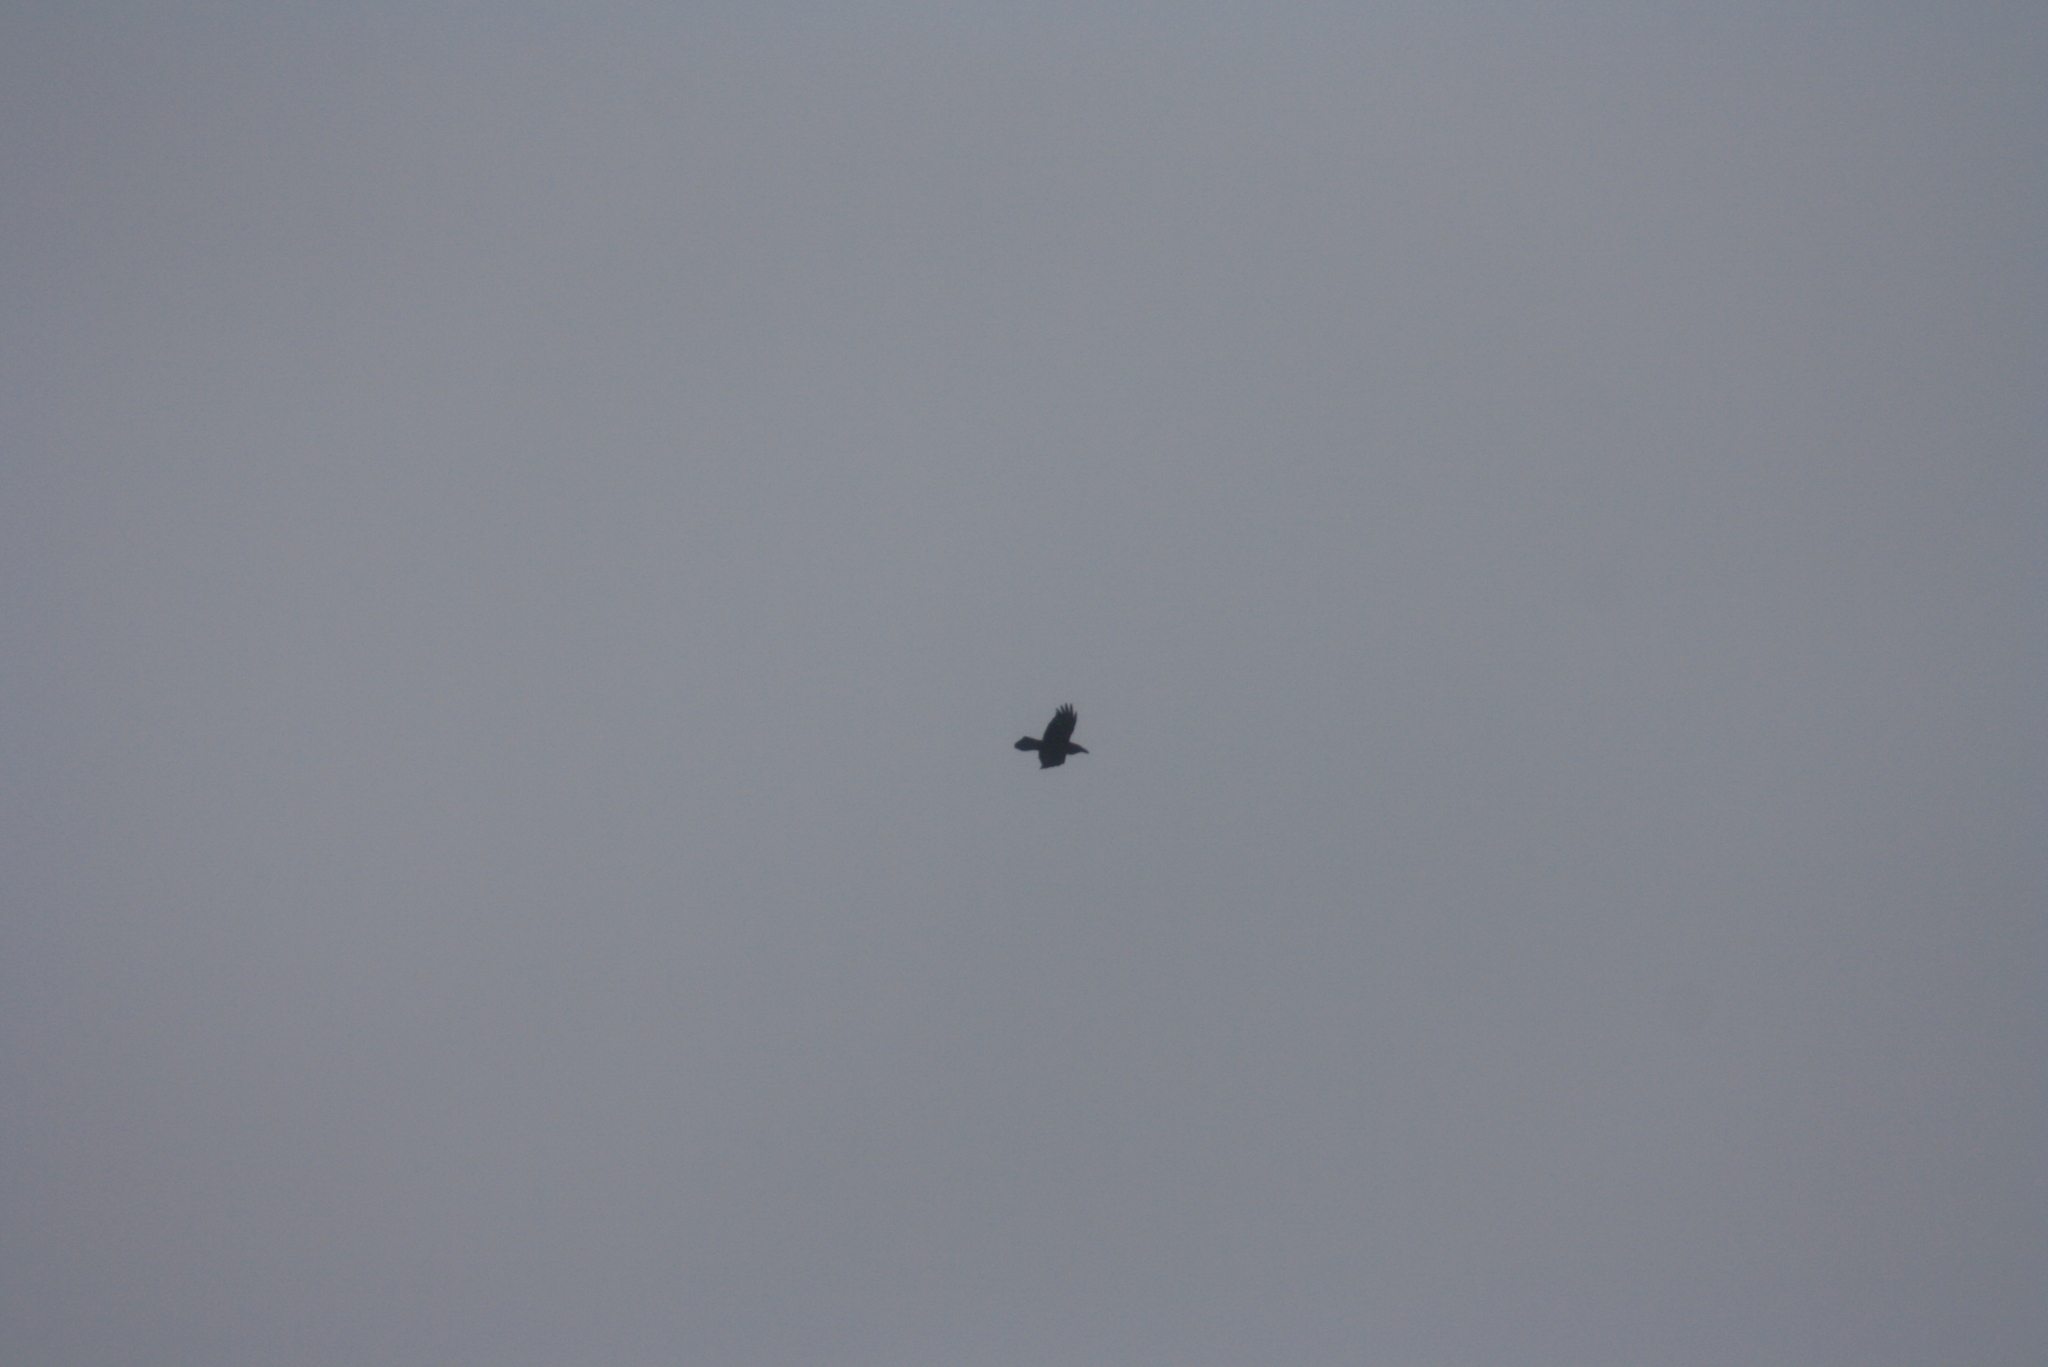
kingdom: Animalia
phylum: Chordata
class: Aves
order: Passeriformes
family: Corvidae
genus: Corvus
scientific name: Corvus corax
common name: Common raven
